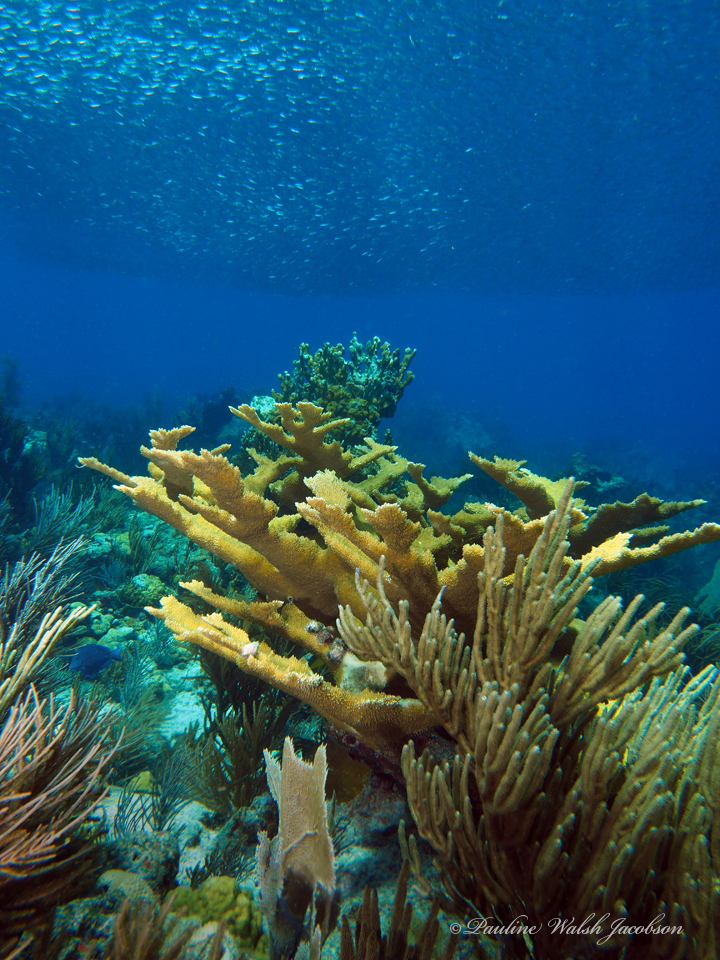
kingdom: Animalia
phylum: Cnidaria
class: Anthozoa
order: Scleractinia
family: Acroporidae
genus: Acropora
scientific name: Acropora palmata
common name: Elkhorn coral
